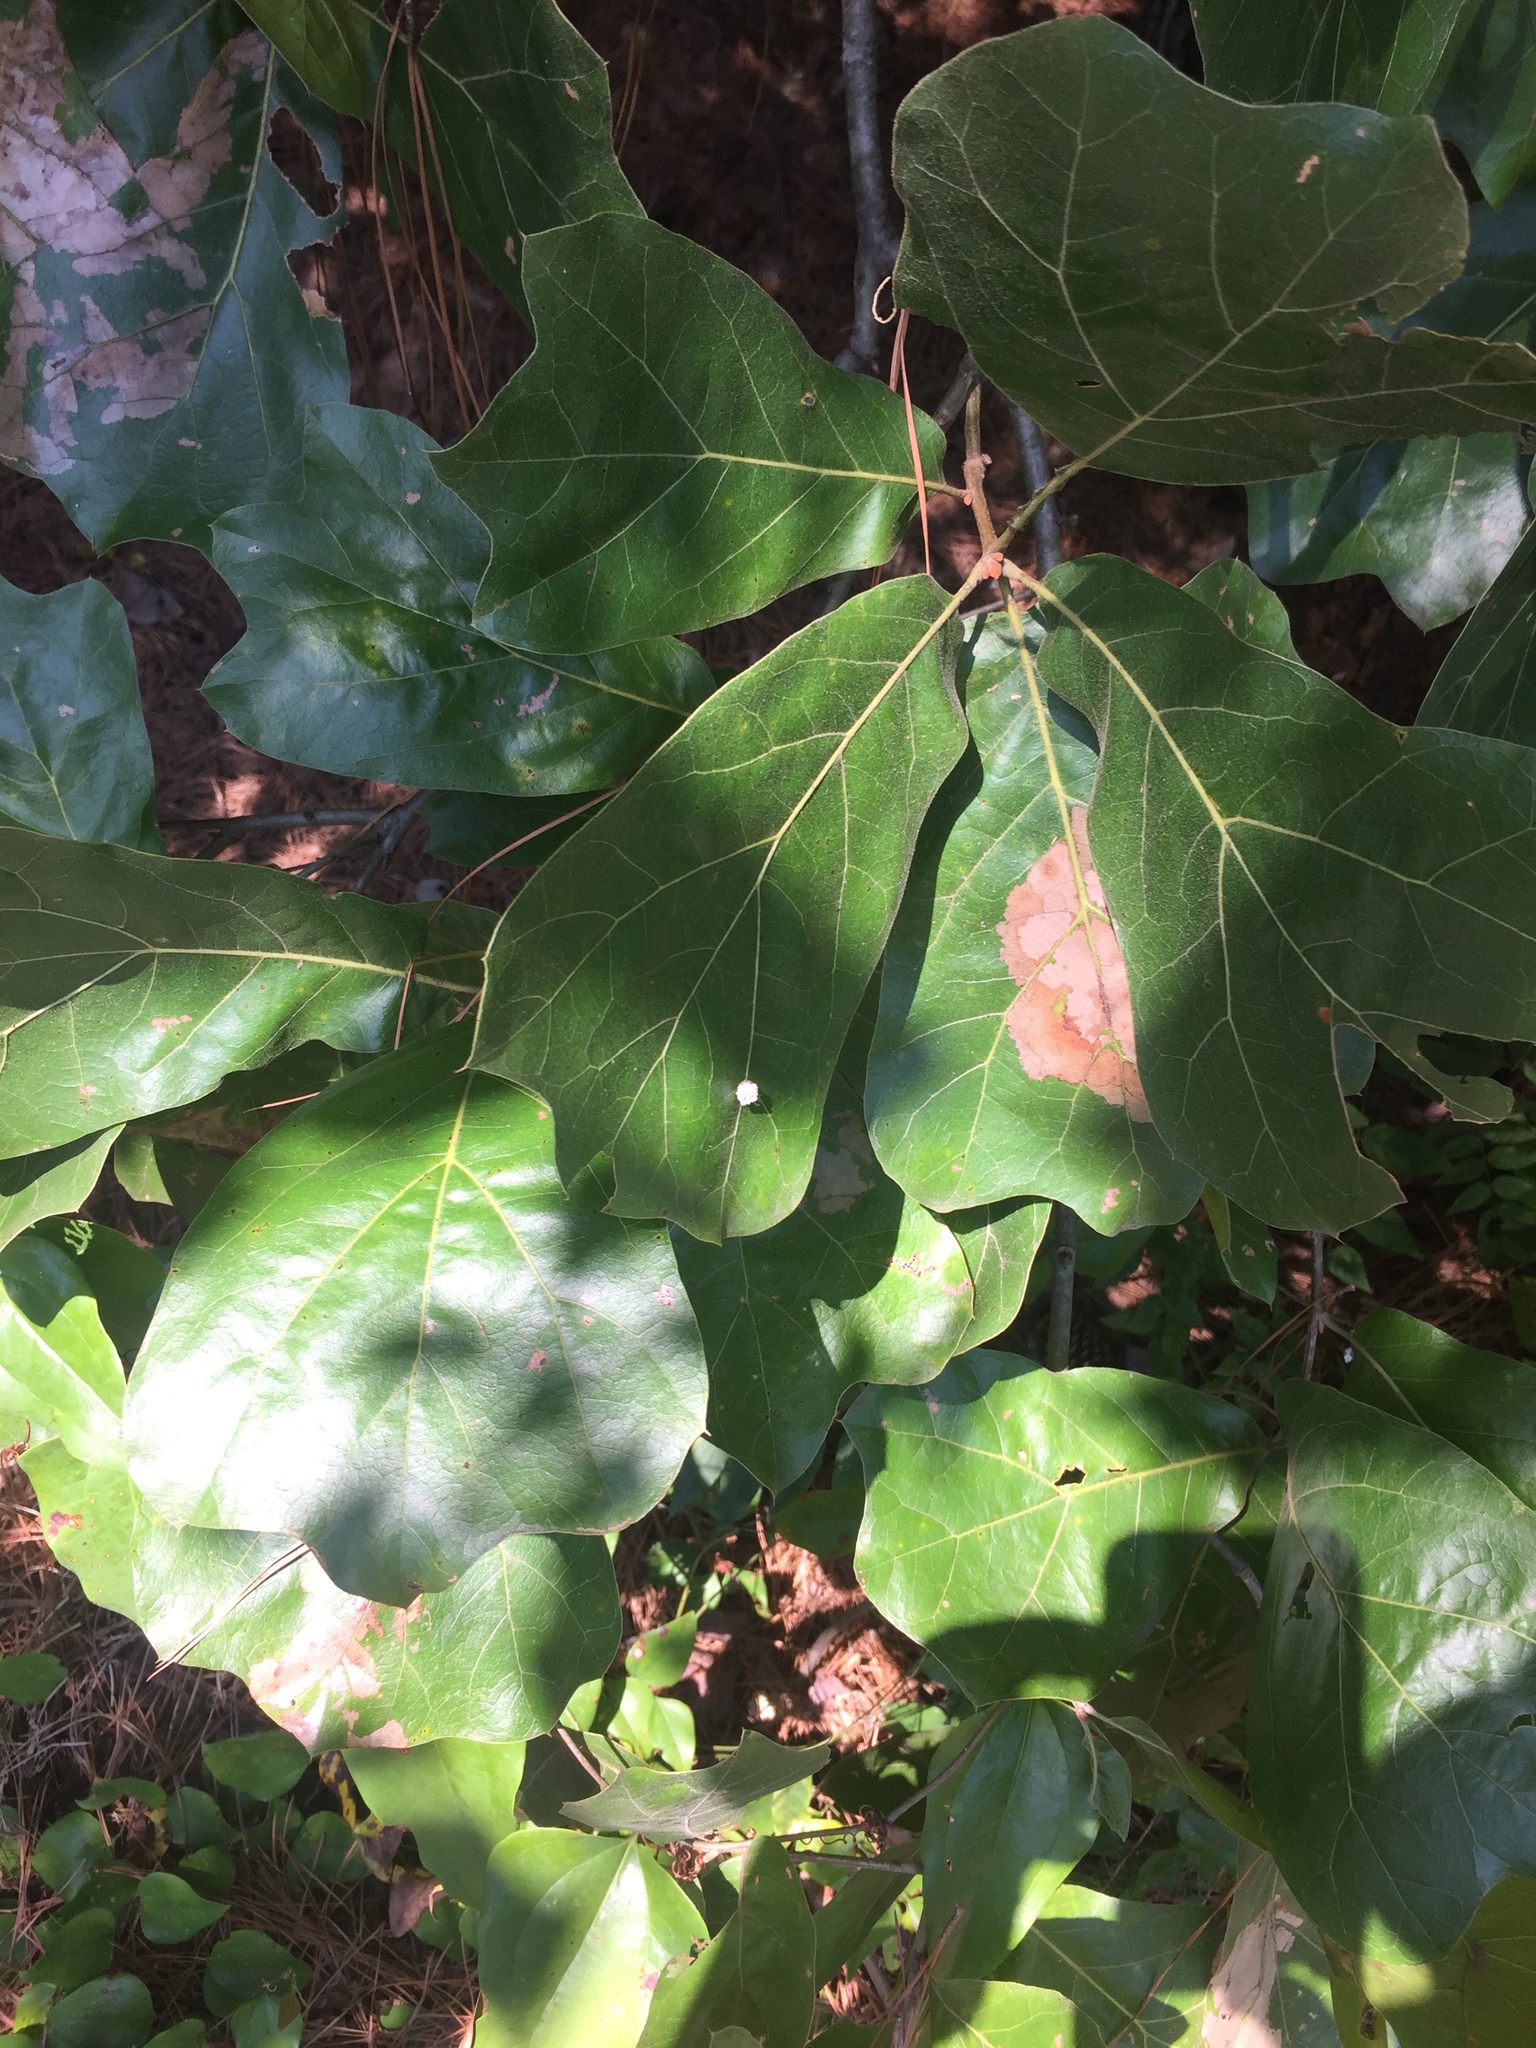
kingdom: Plantae
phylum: Tracheophyta
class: Magnoliopsida
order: Fagales
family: Fagaceae
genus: Quercus
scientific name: Quercus marilandica
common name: Blackjack oak
